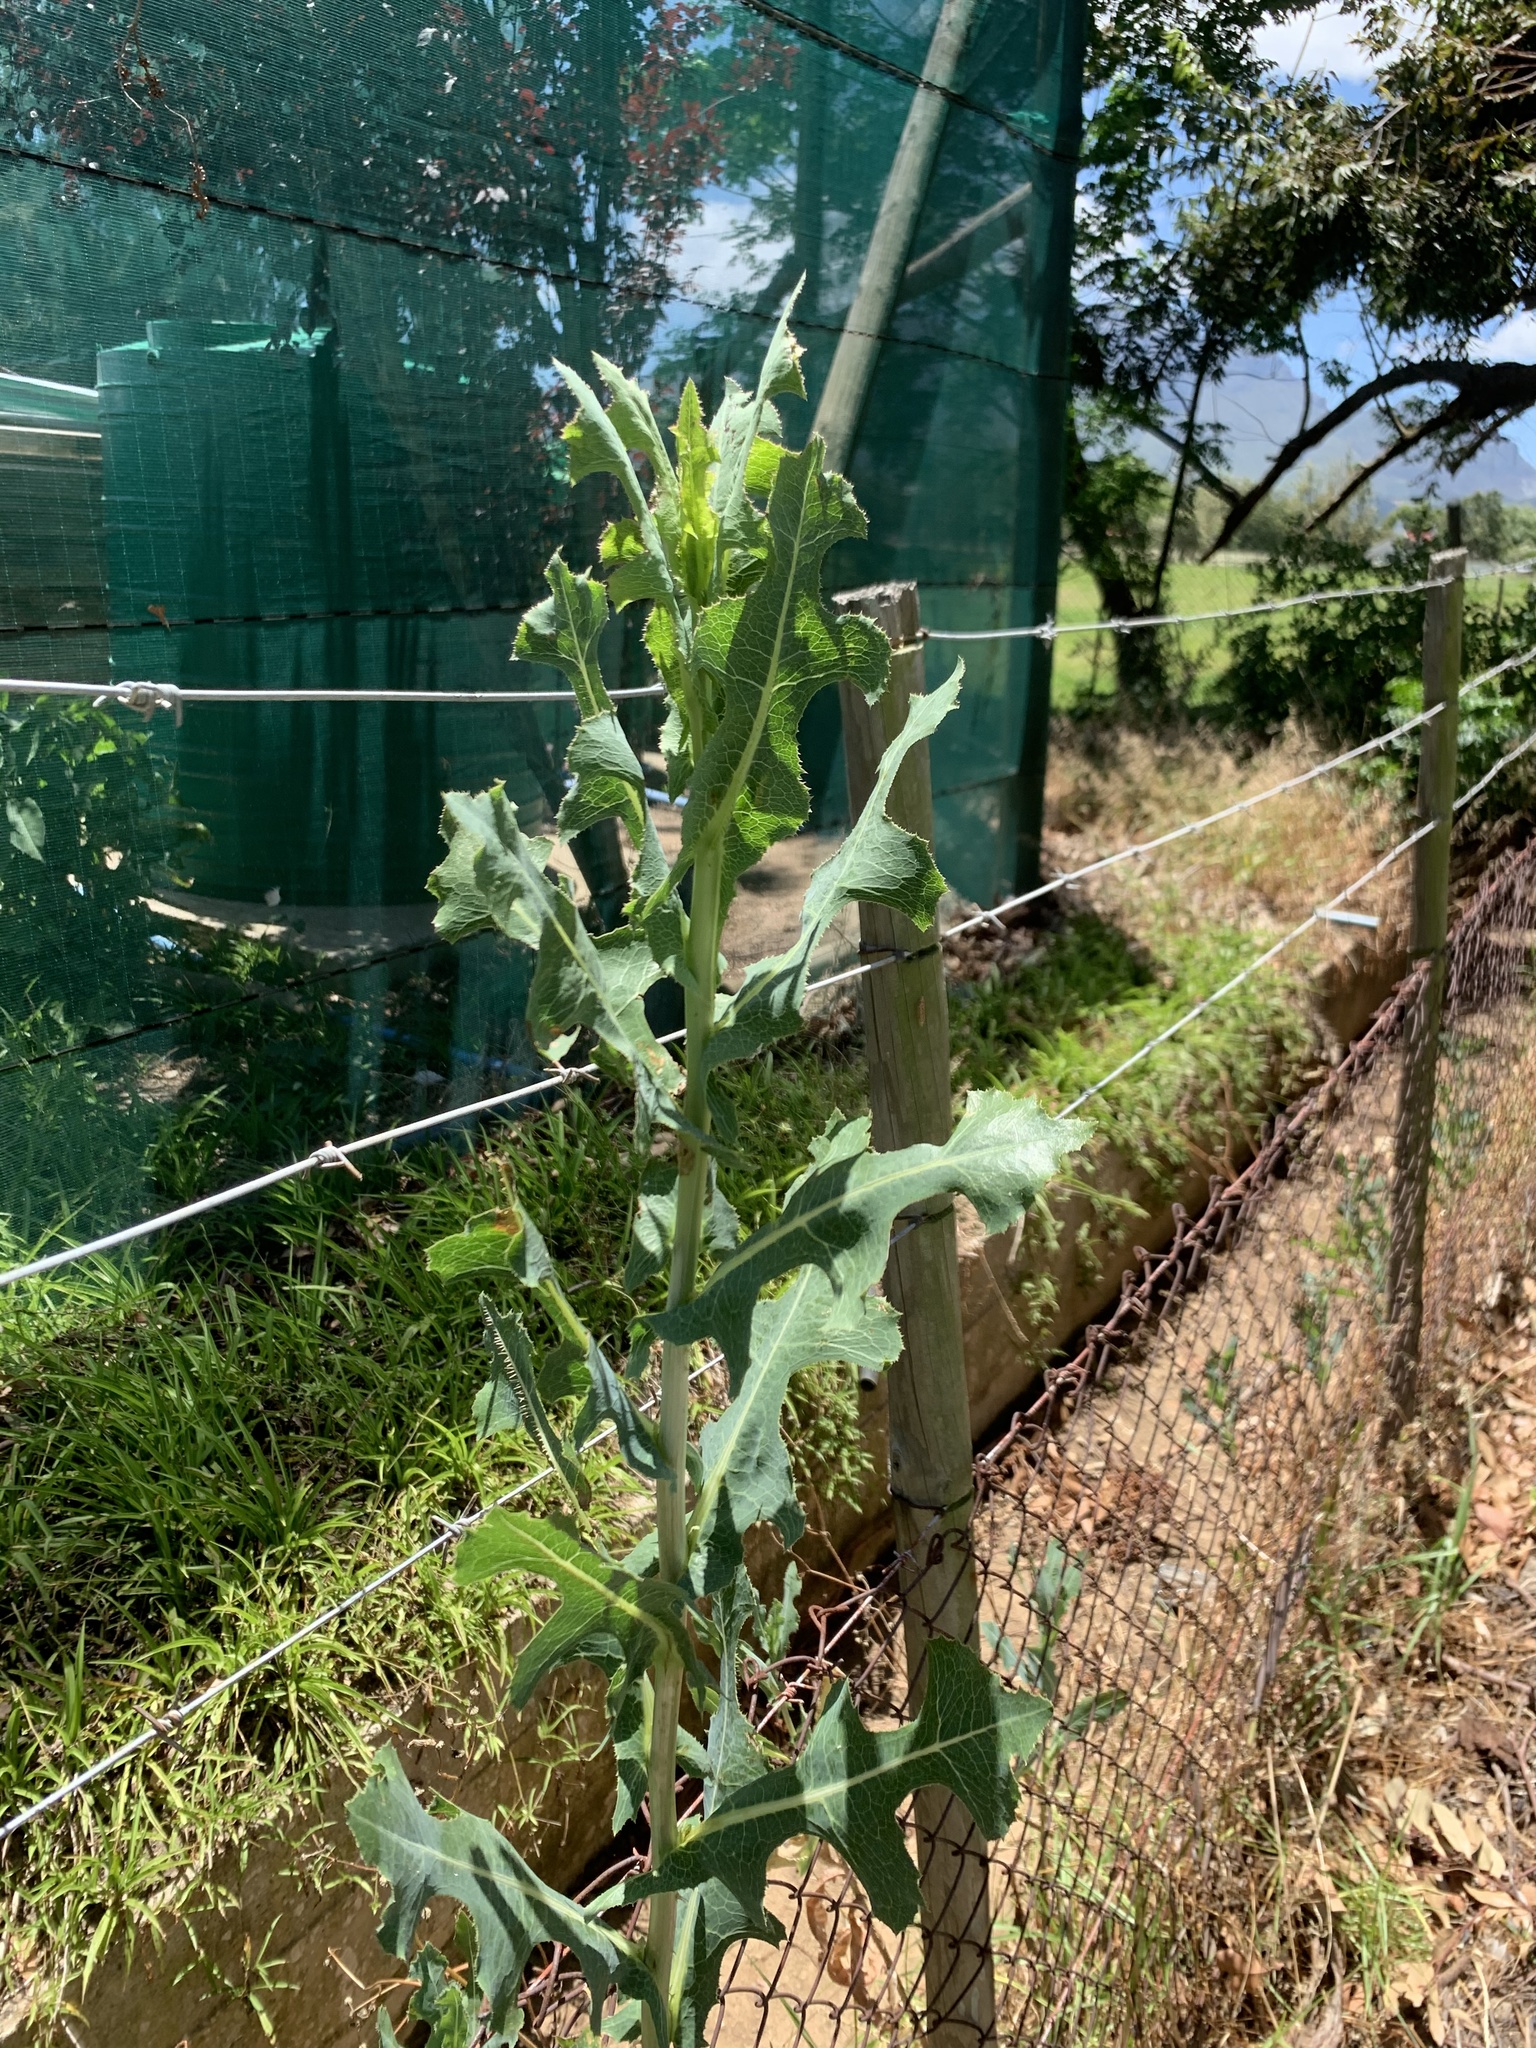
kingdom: Plantae
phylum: Tracheophyta
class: Magnoliopsida
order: Asterales
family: Asteraceae
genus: Lactuca
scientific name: Lactuca serriola
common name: Prickly lettuce
